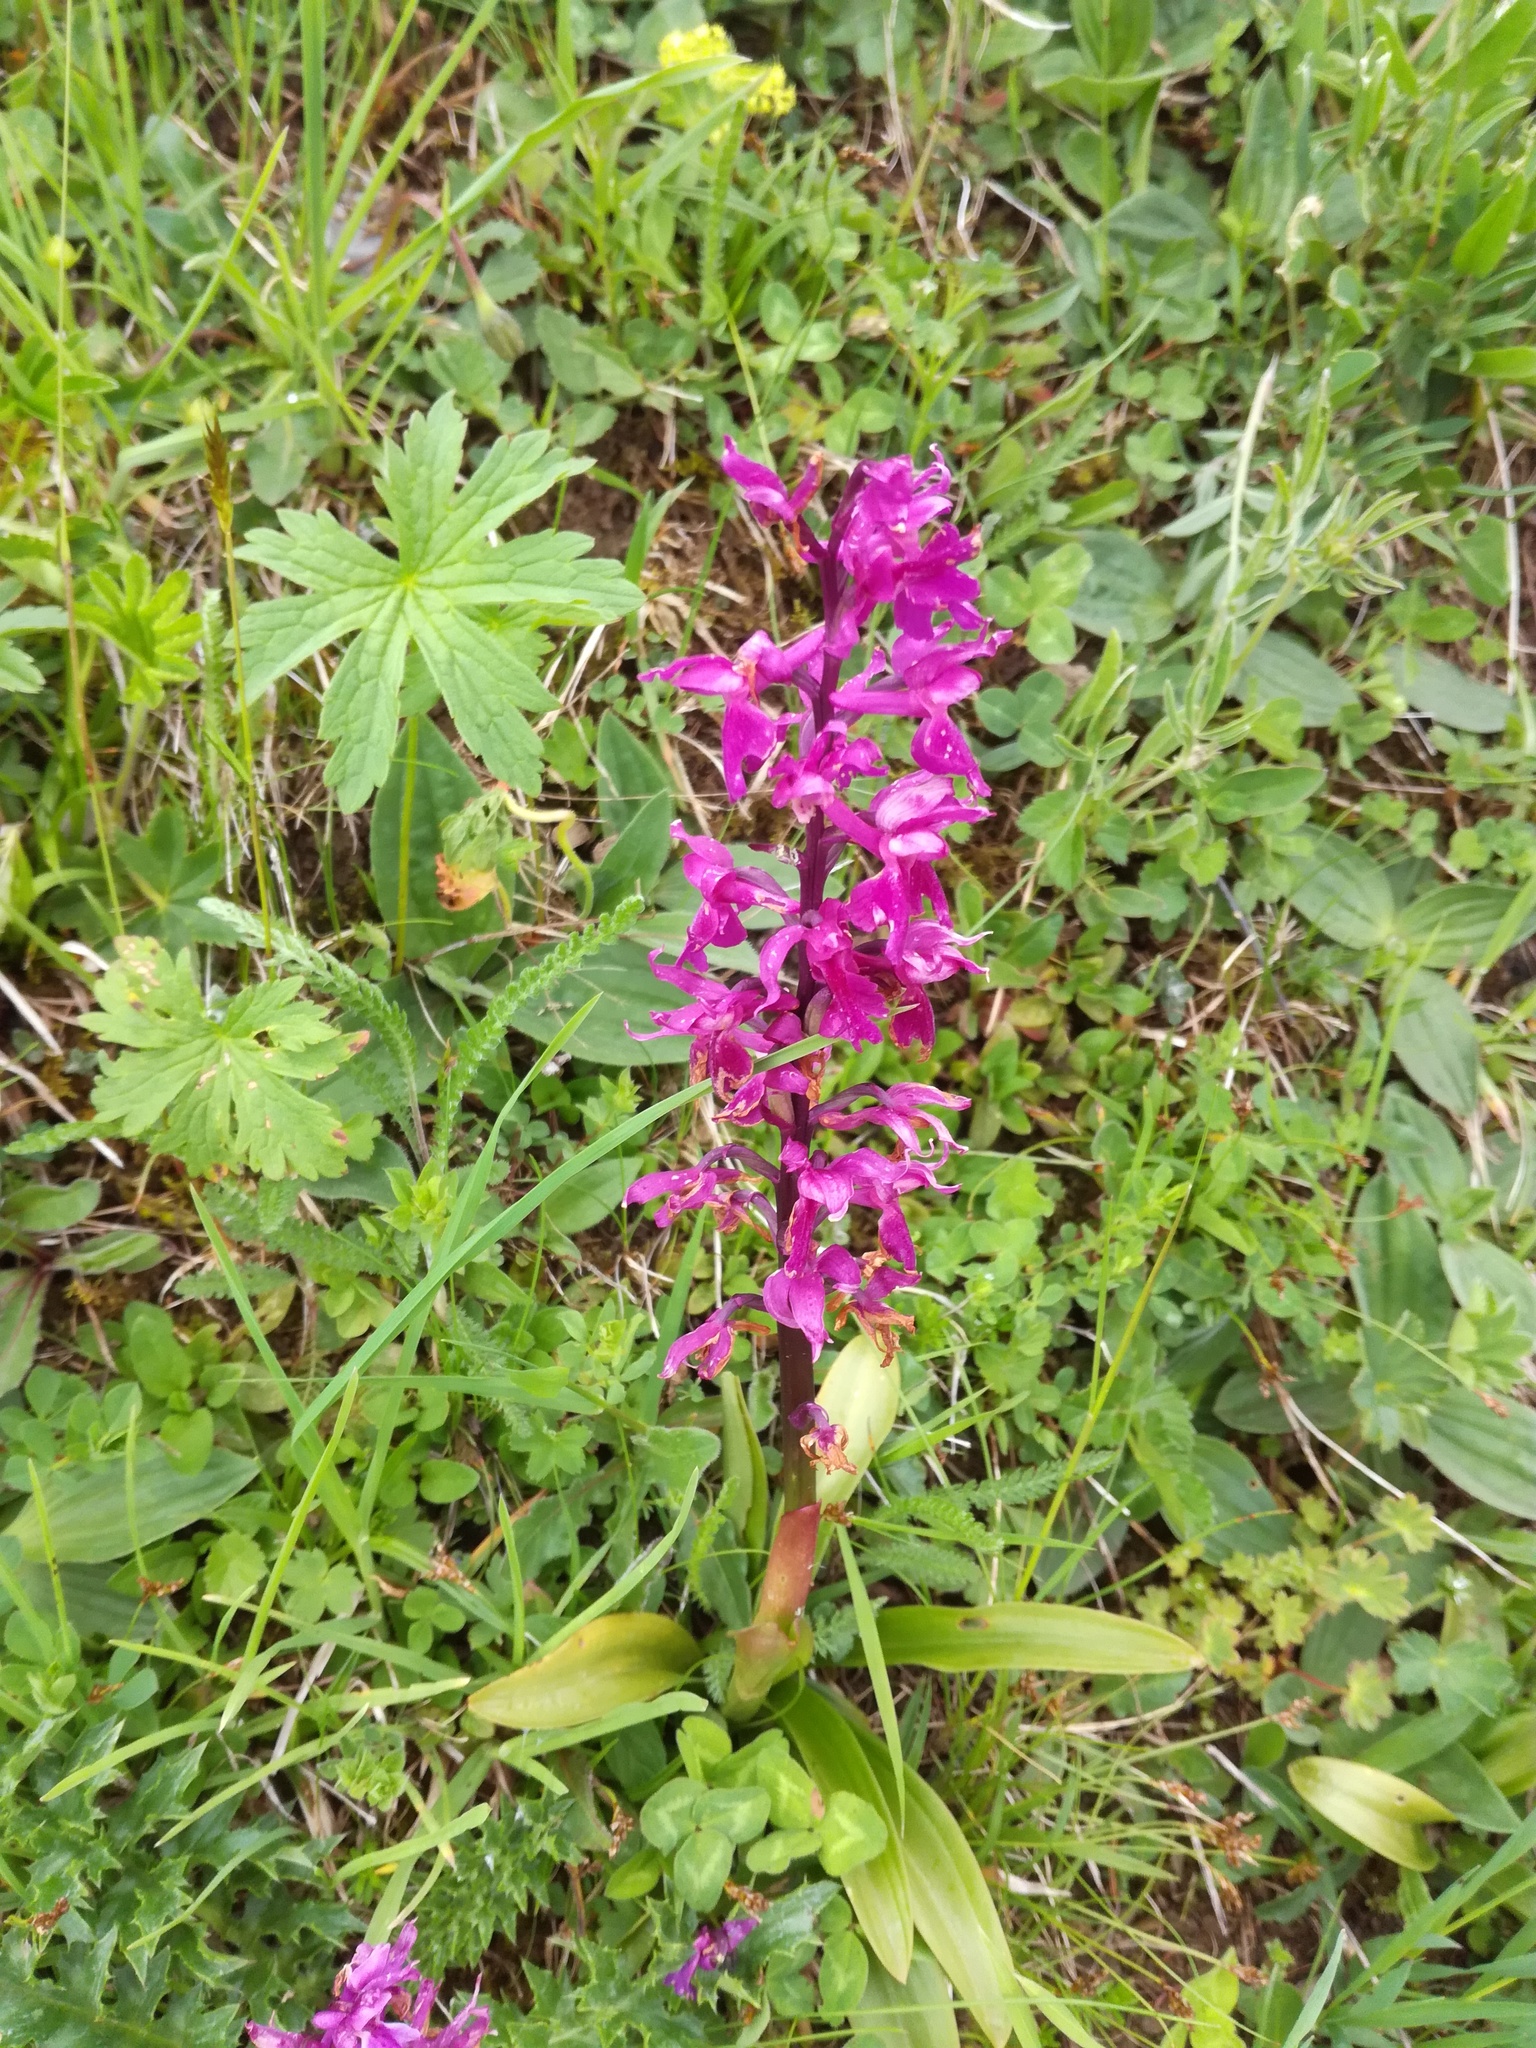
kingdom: Plantae
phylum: Tracheophyta
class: Liliopsida
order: Asparagales
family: Orchidaceae
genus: Orchis
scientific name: Orchis mascula
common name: Early-purple orchid
